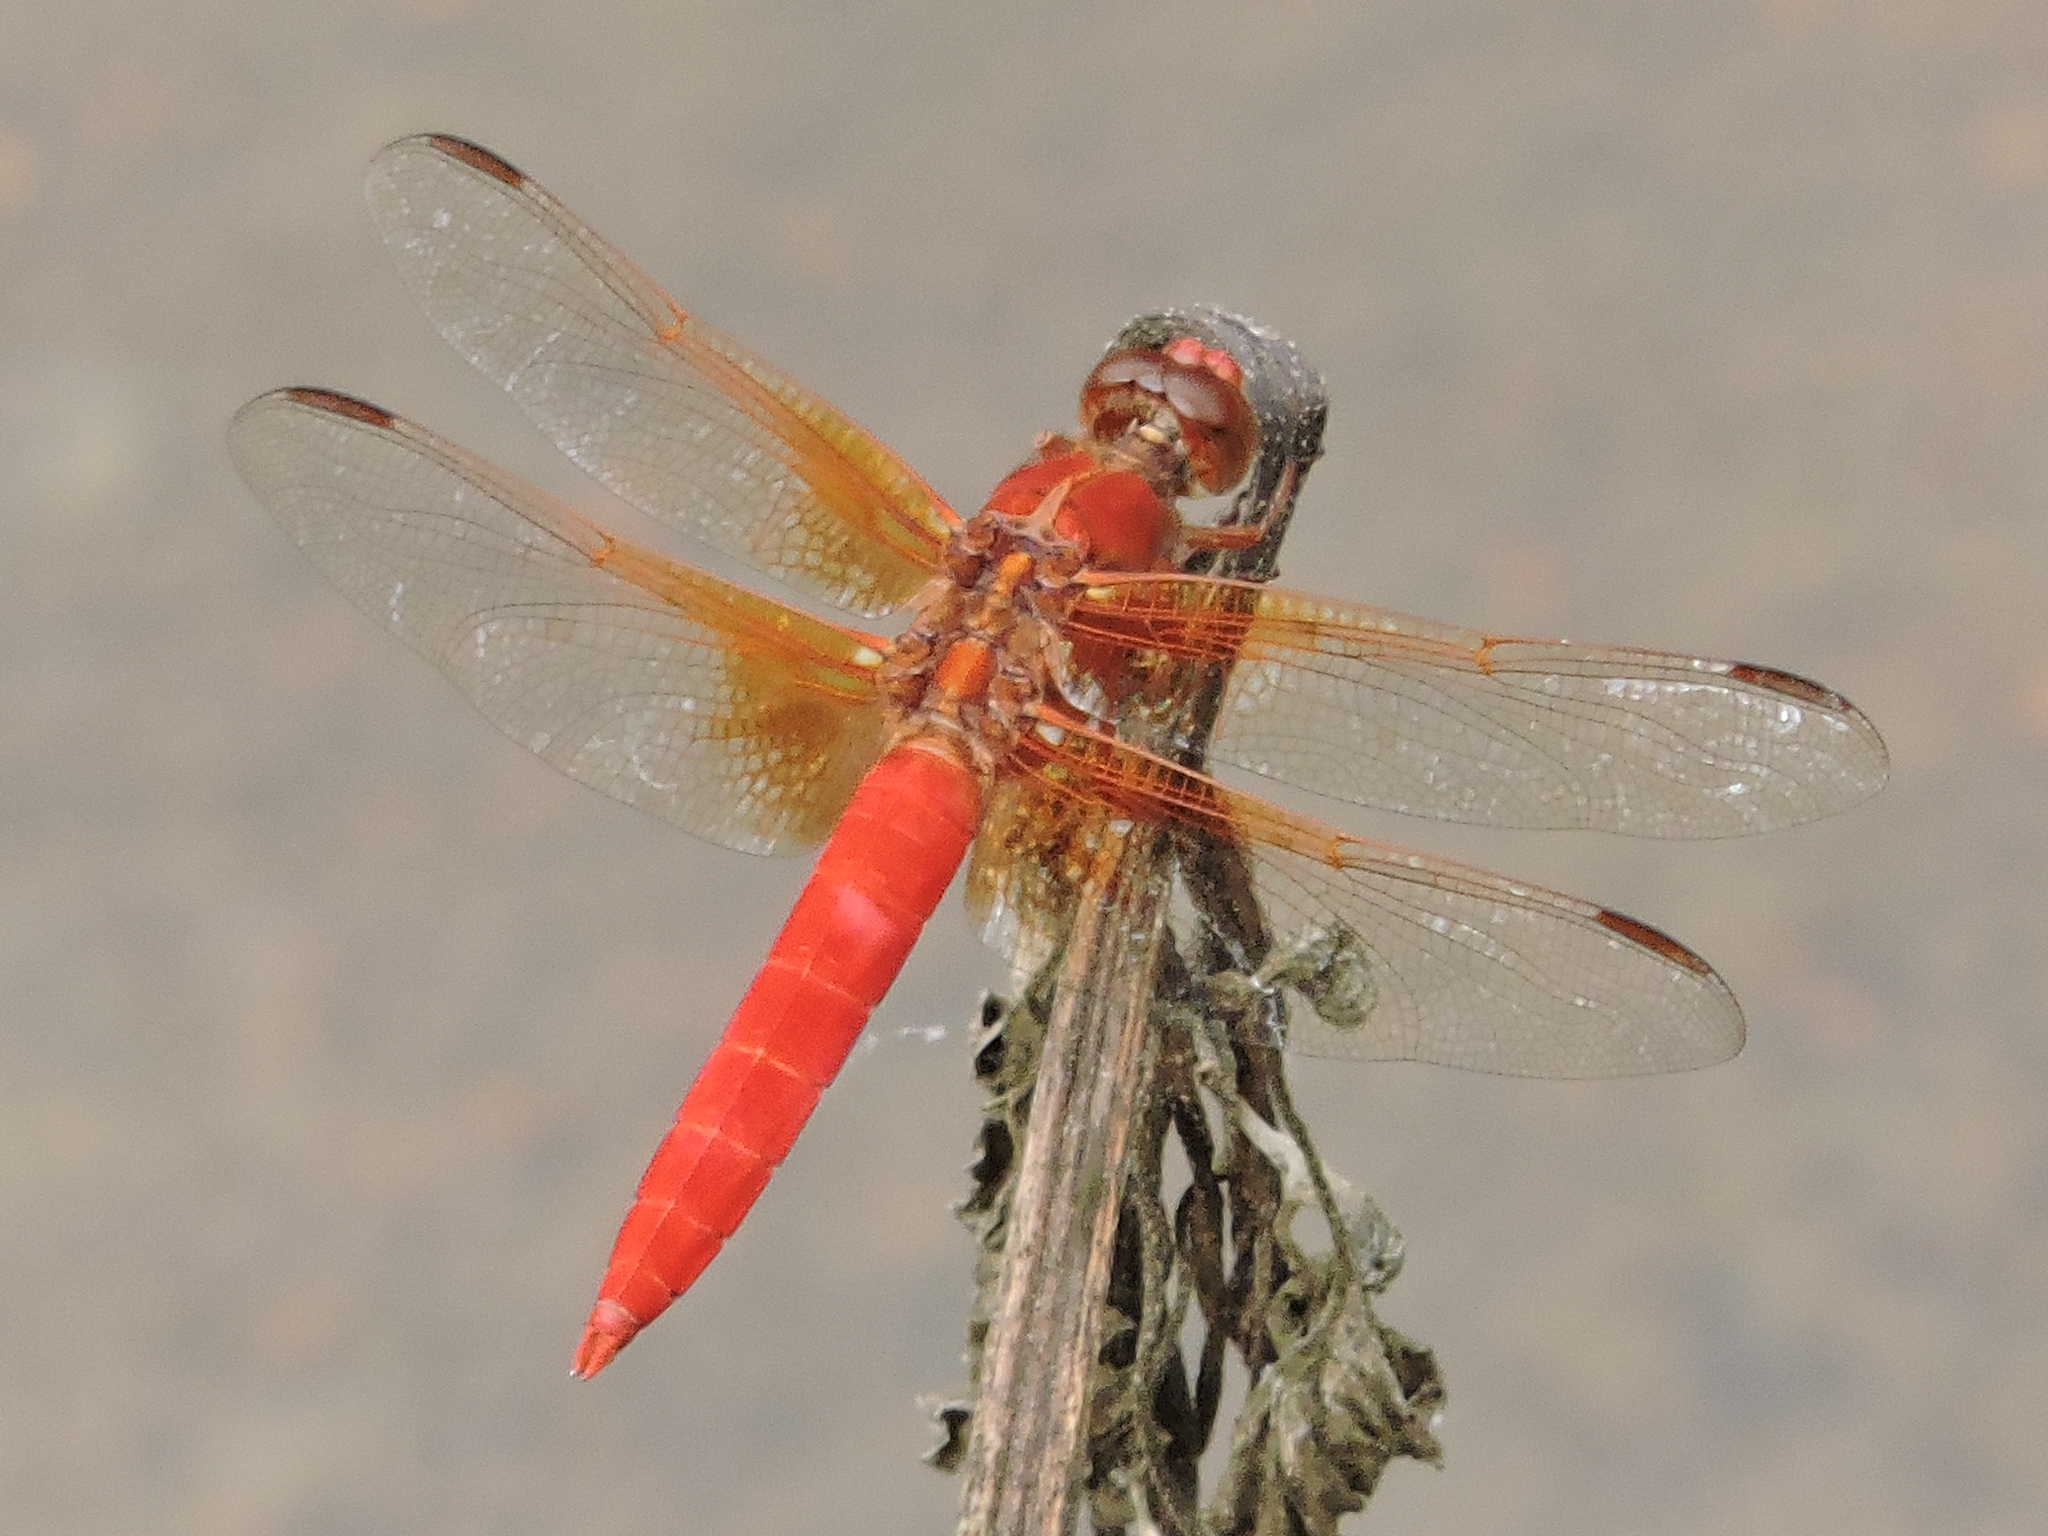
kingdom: Animalia
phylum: Arthropoda
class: Insecta
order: Odonata
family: Libellulidae
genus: Libellula
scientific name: Libellula croceipennis
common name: Neon skimmer
